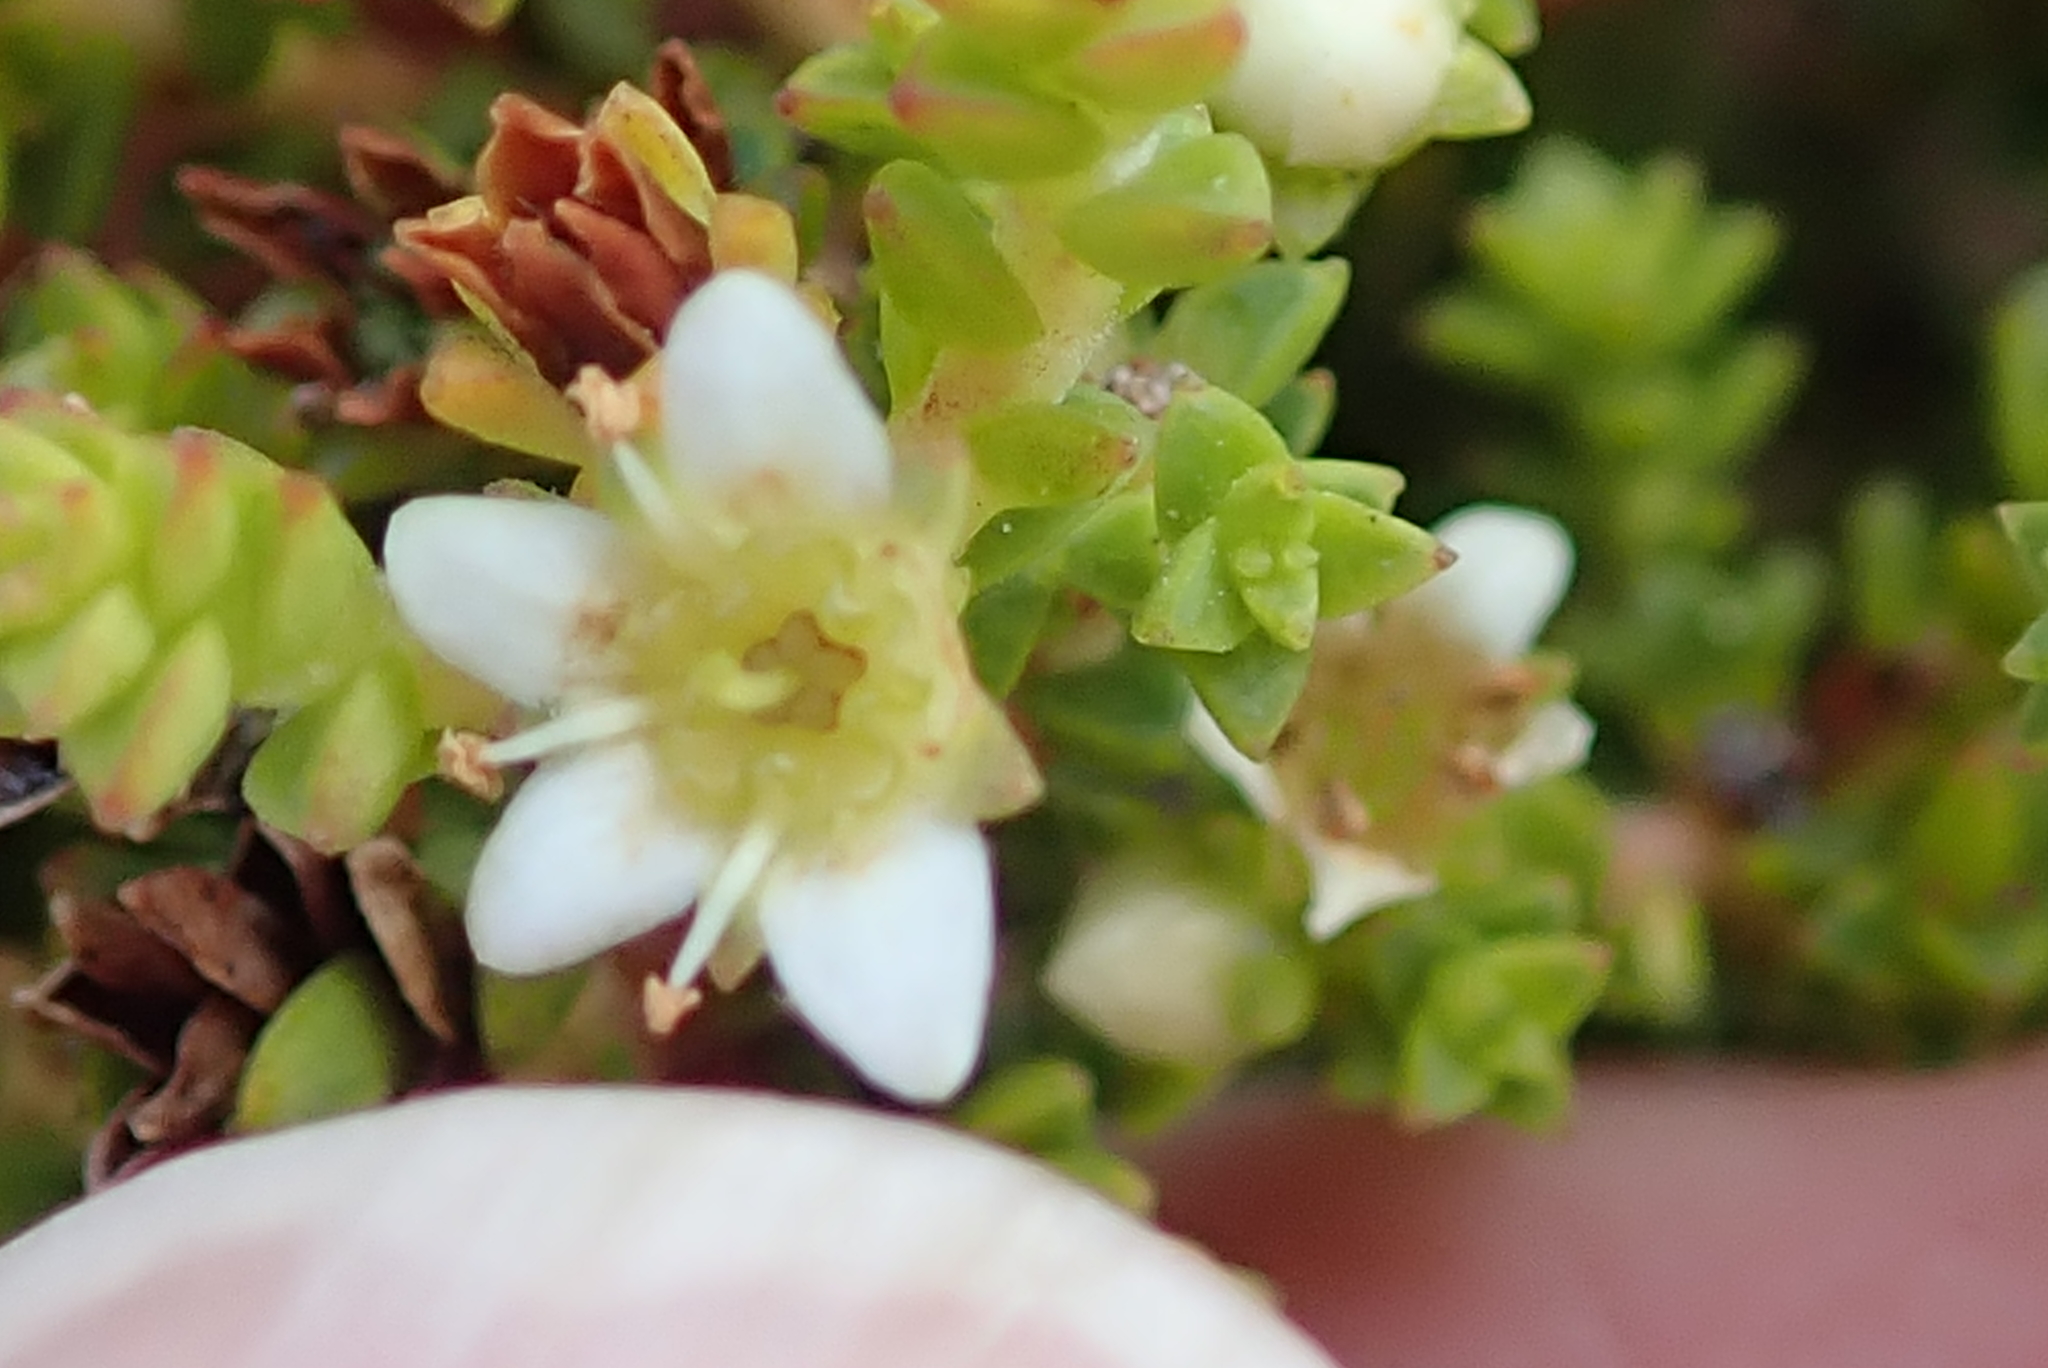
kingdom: Plantae
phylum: Tracheophyta
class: Magnoliopsida
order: Sapindales
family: Rutaceae
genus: Diosma
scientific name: Diosma guthriei
